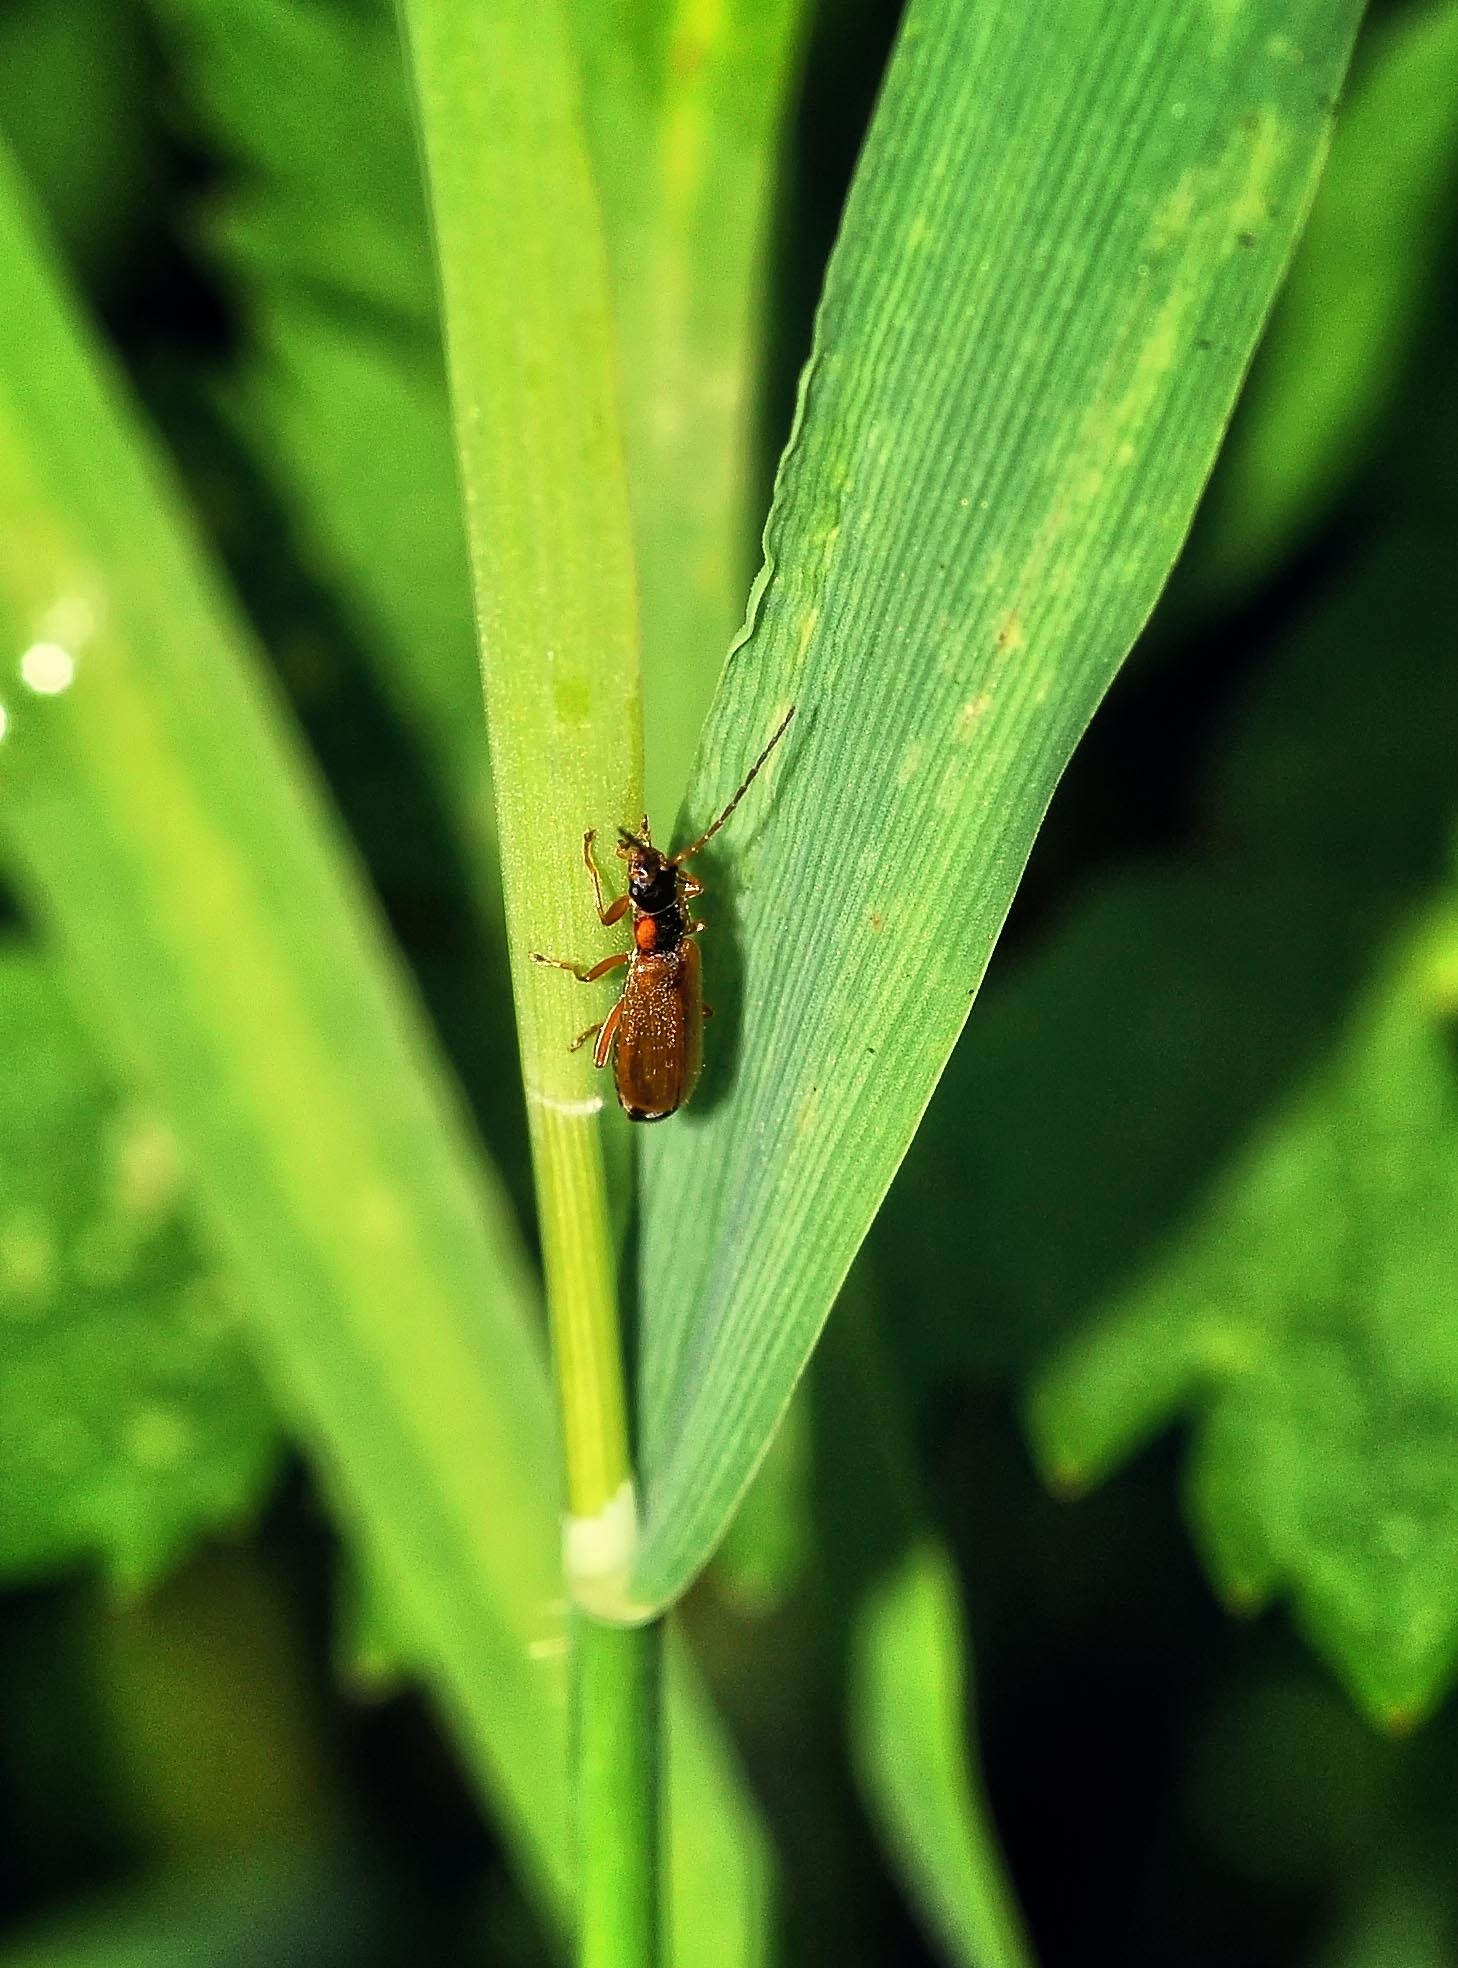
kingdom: Animalia
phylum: Arthropoda
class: Insecta
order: Coleoptera
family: Cantharidae
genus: Rhagonycha
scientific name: Rhagonycha testacea
